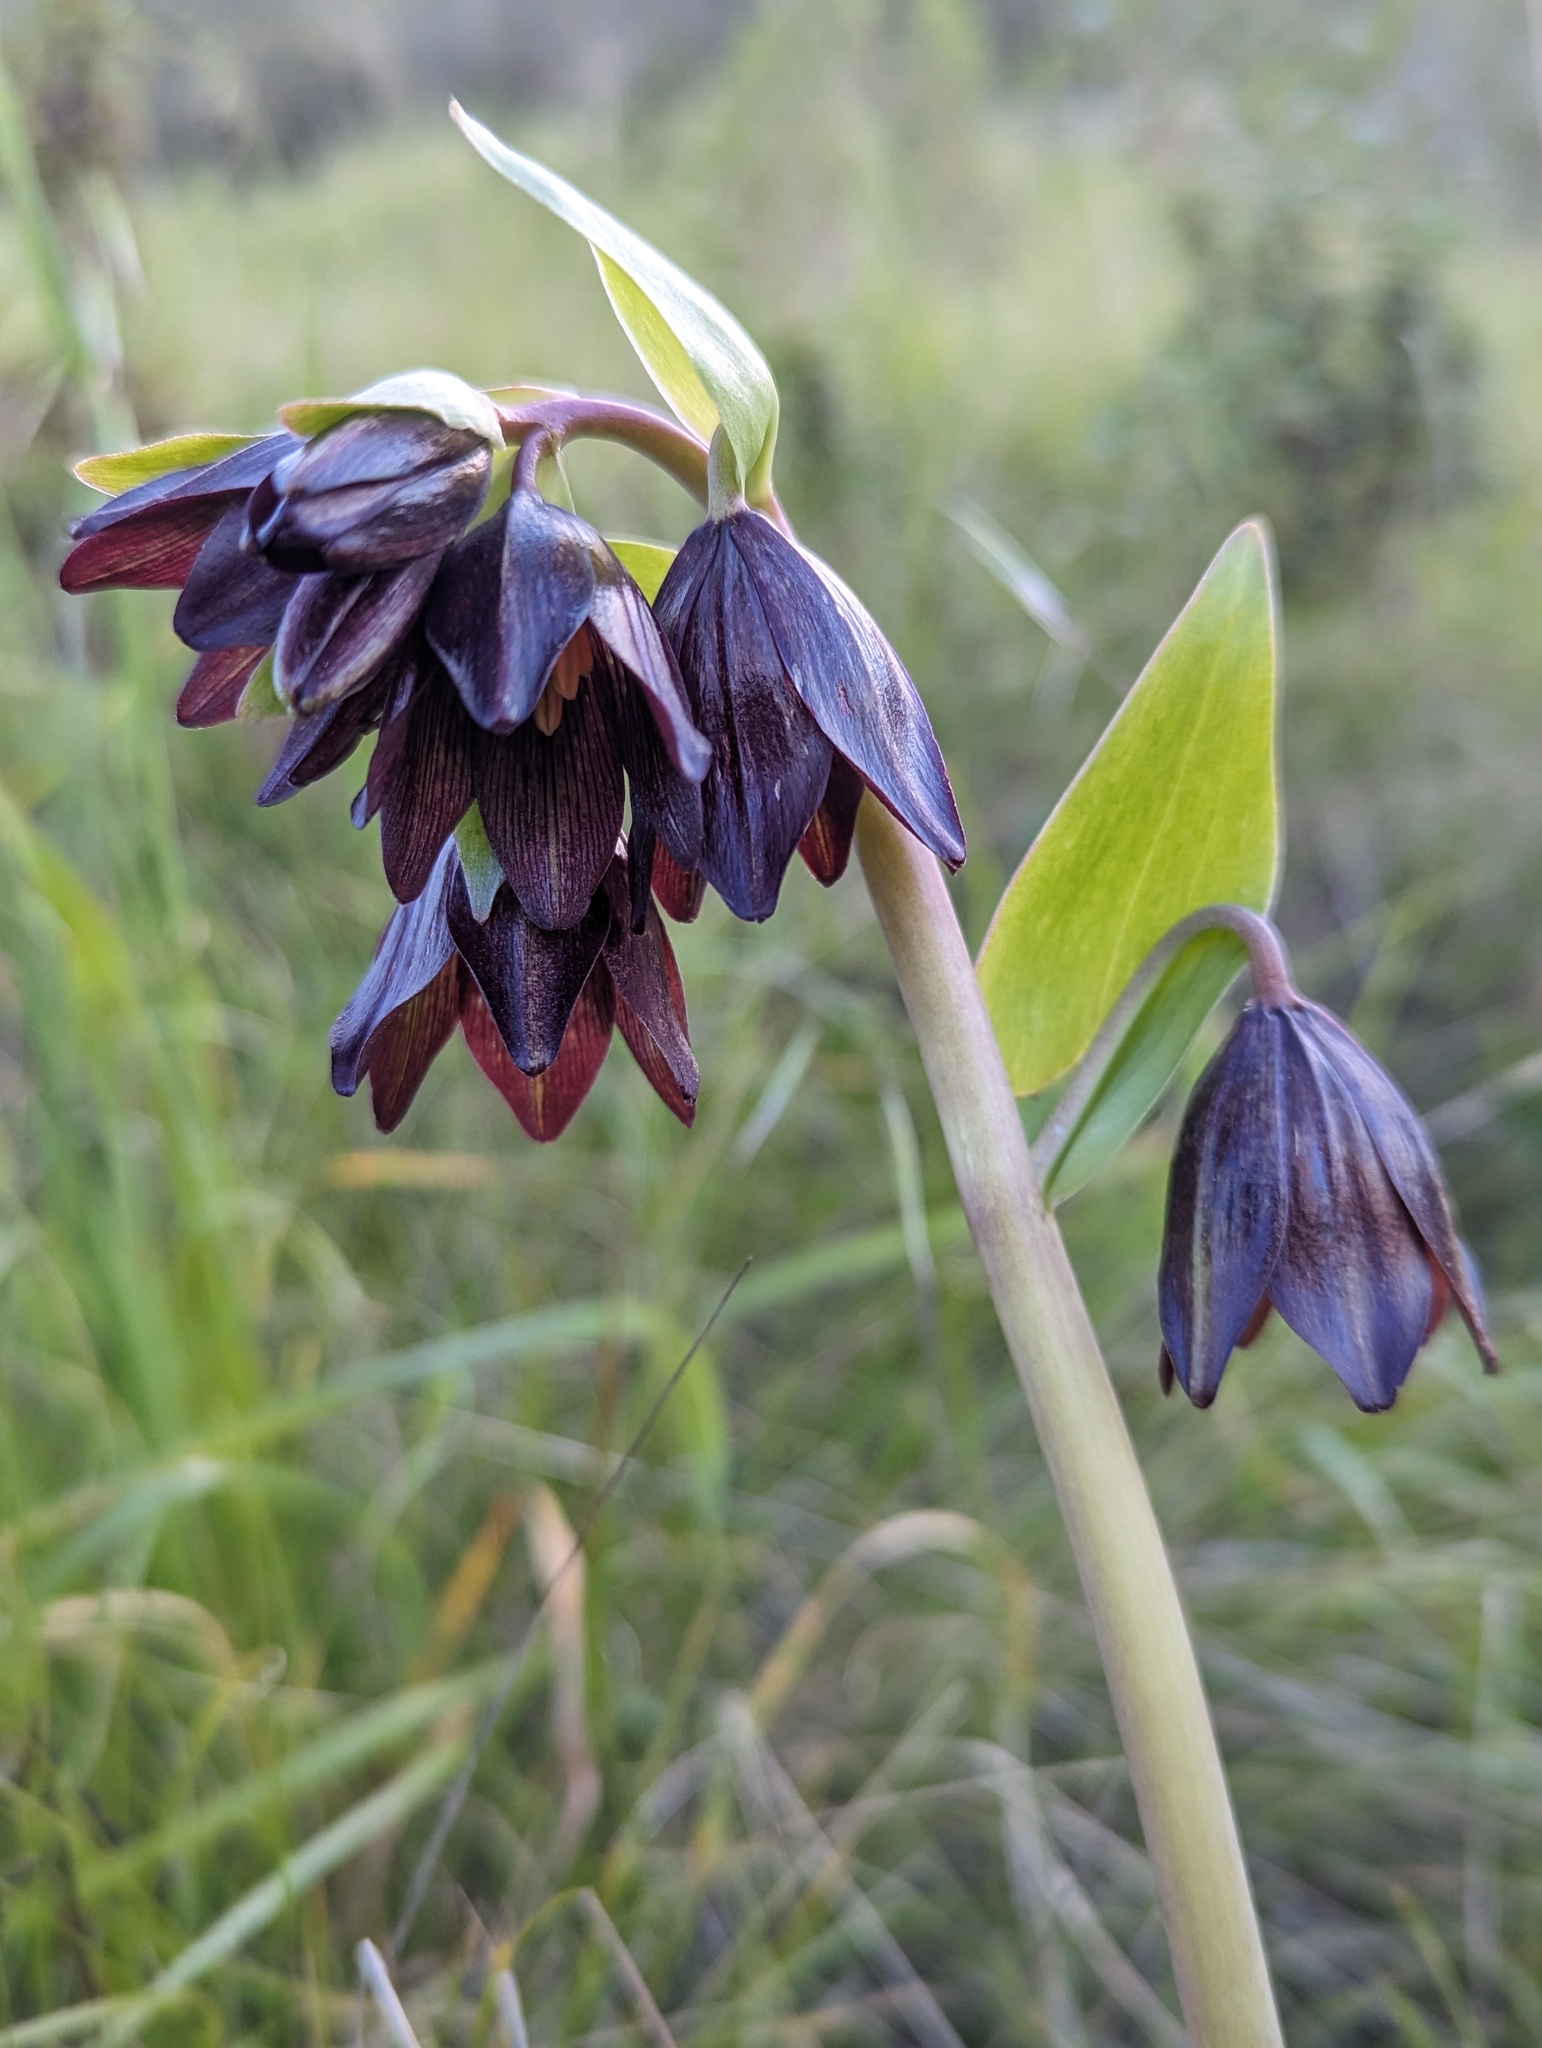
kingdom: Plantae
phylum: Tracheophyta
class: Liliopsida
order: Liliales
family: Liliaceae
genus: Fritillaria
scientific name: Fritillaria biflora
